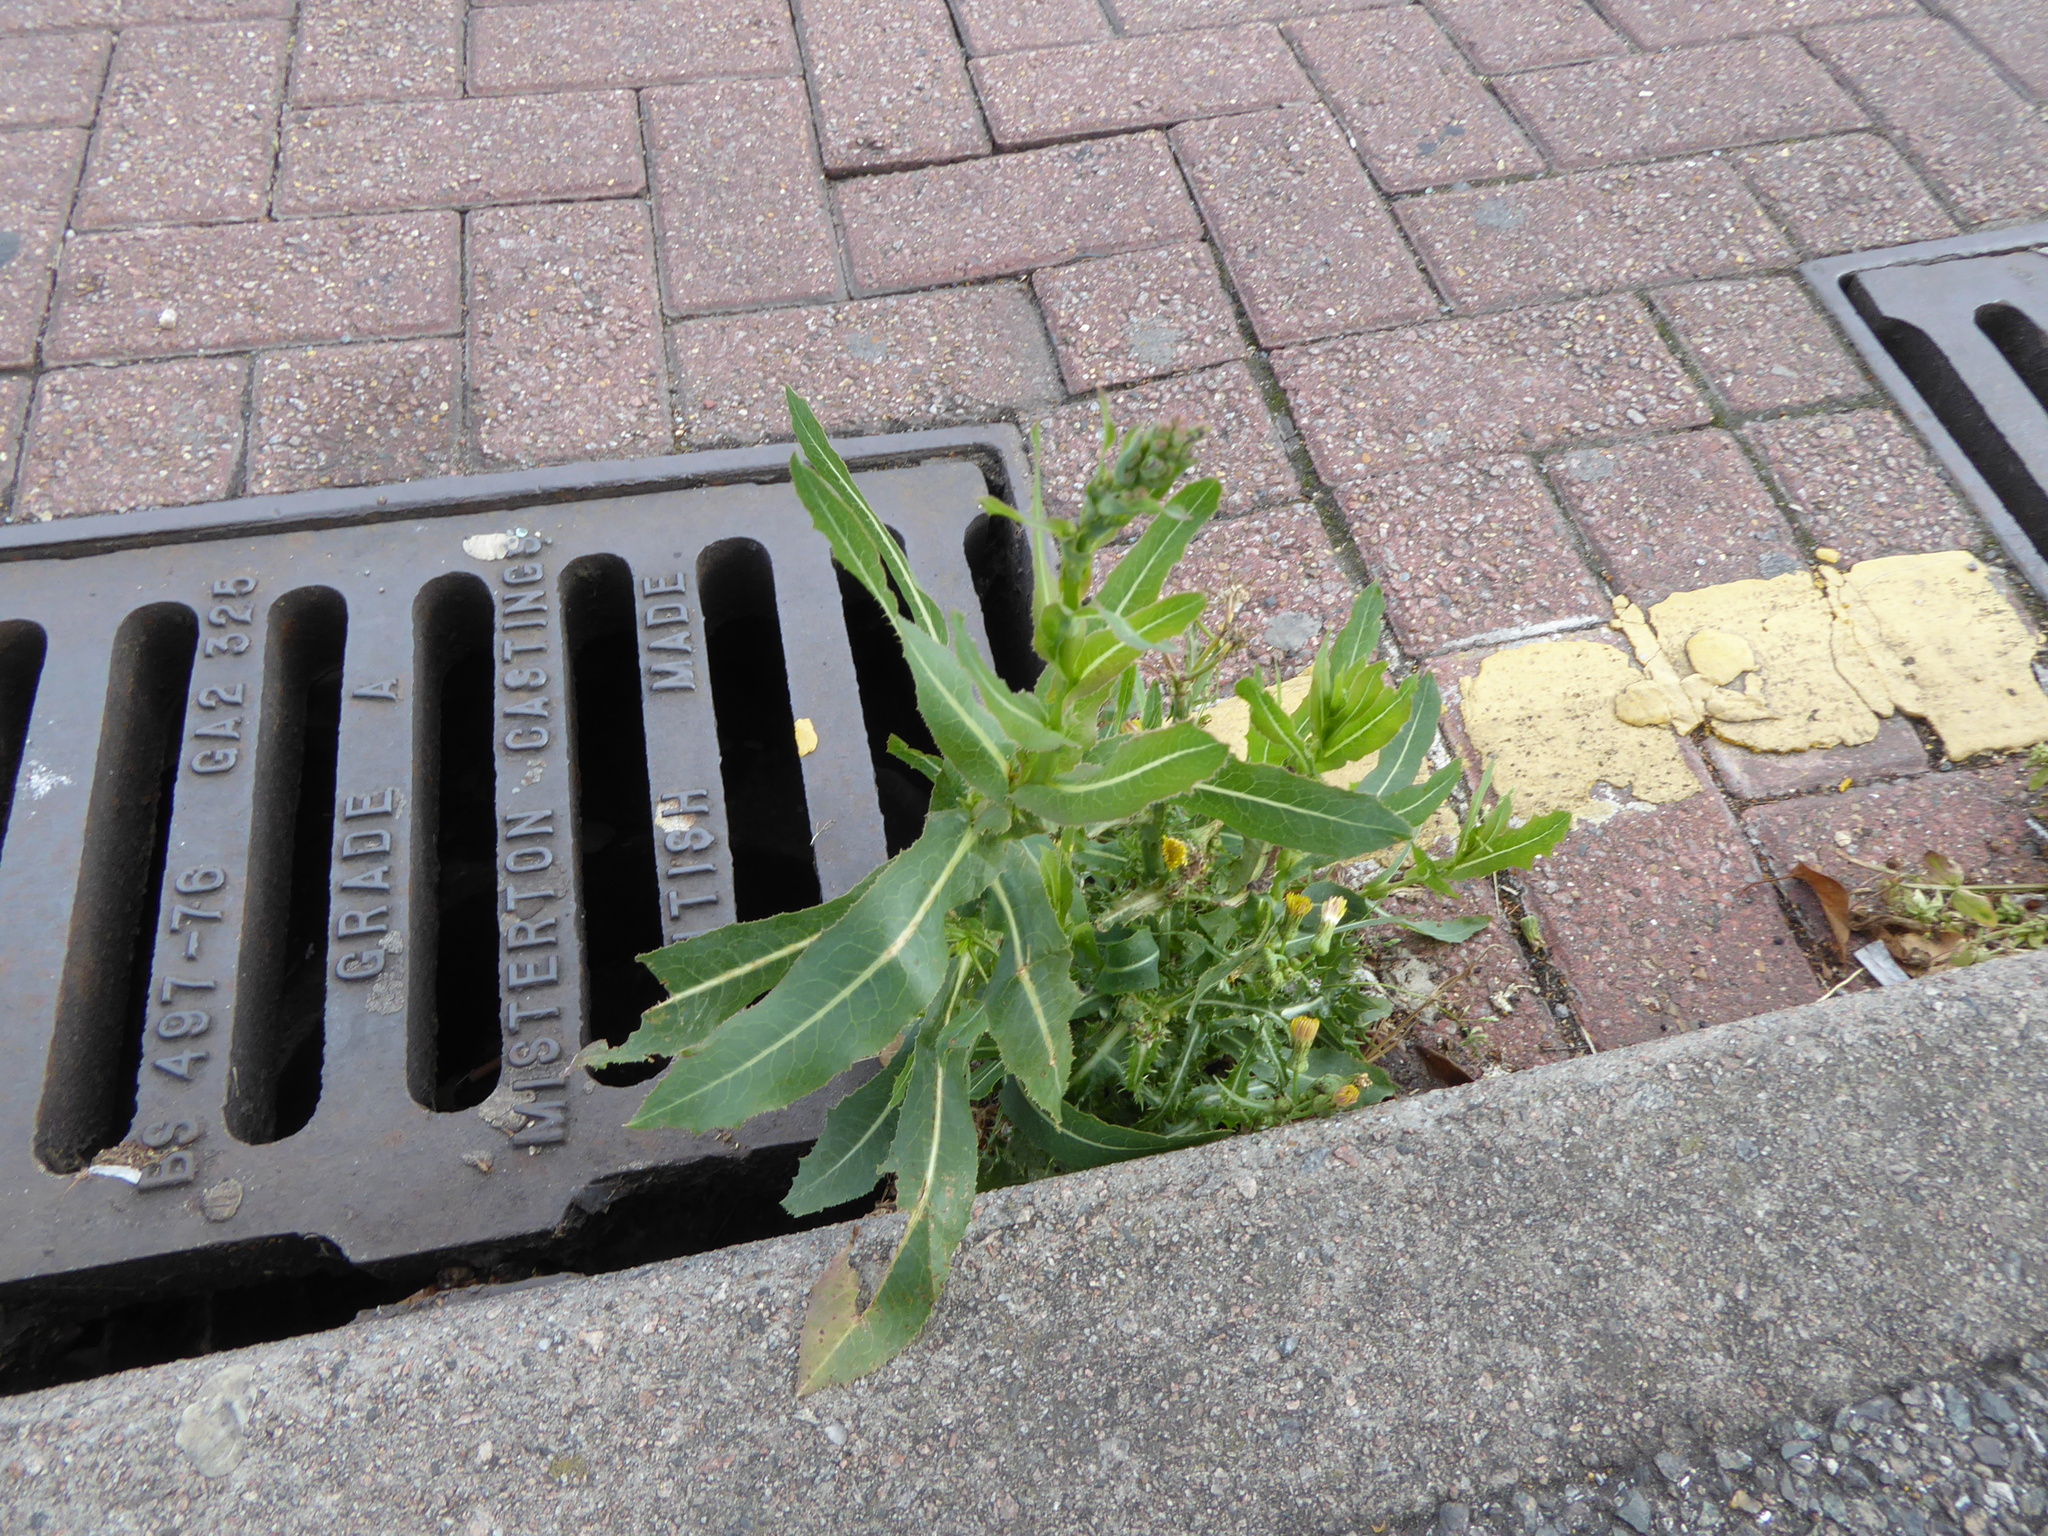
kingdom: Plantae
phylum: Tracheophyta
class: Magnoliopsida
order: Asterales
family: Asteraceae
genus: Lactuca
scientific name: Lactuca serriola
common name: Prickly lettuce
